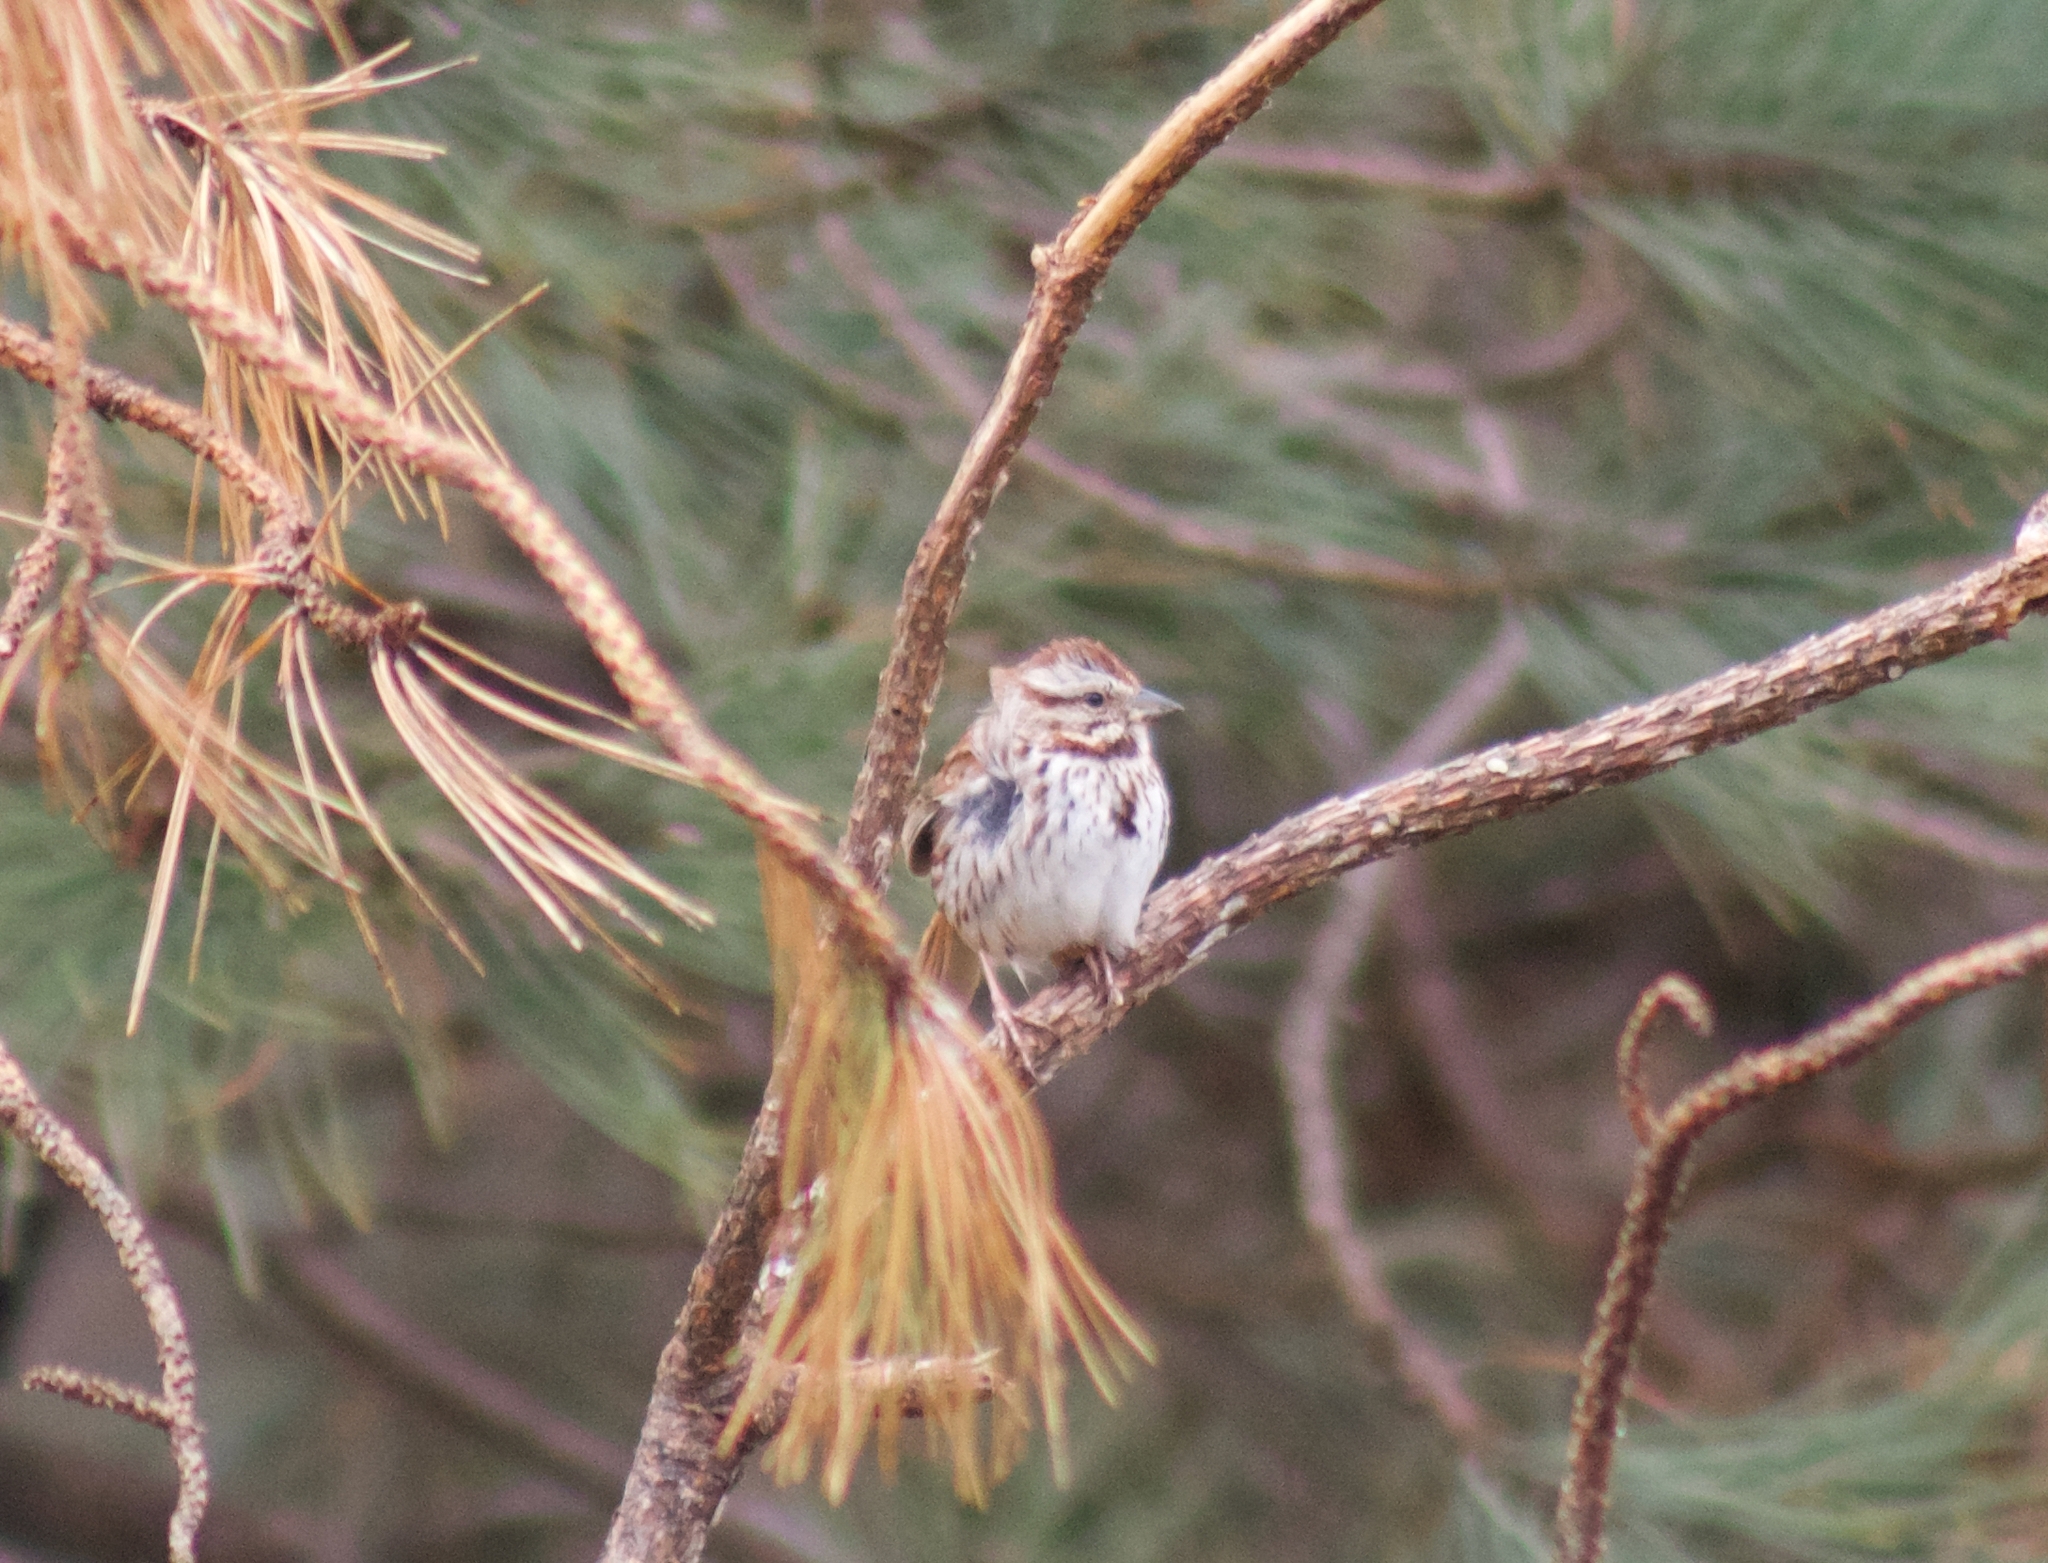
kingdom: Animalia
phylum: Chordata
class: Aves
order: Passeriformes
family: Passerellidae
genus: Melospiza
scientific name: Melospiza melodia
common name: Song sparrow
